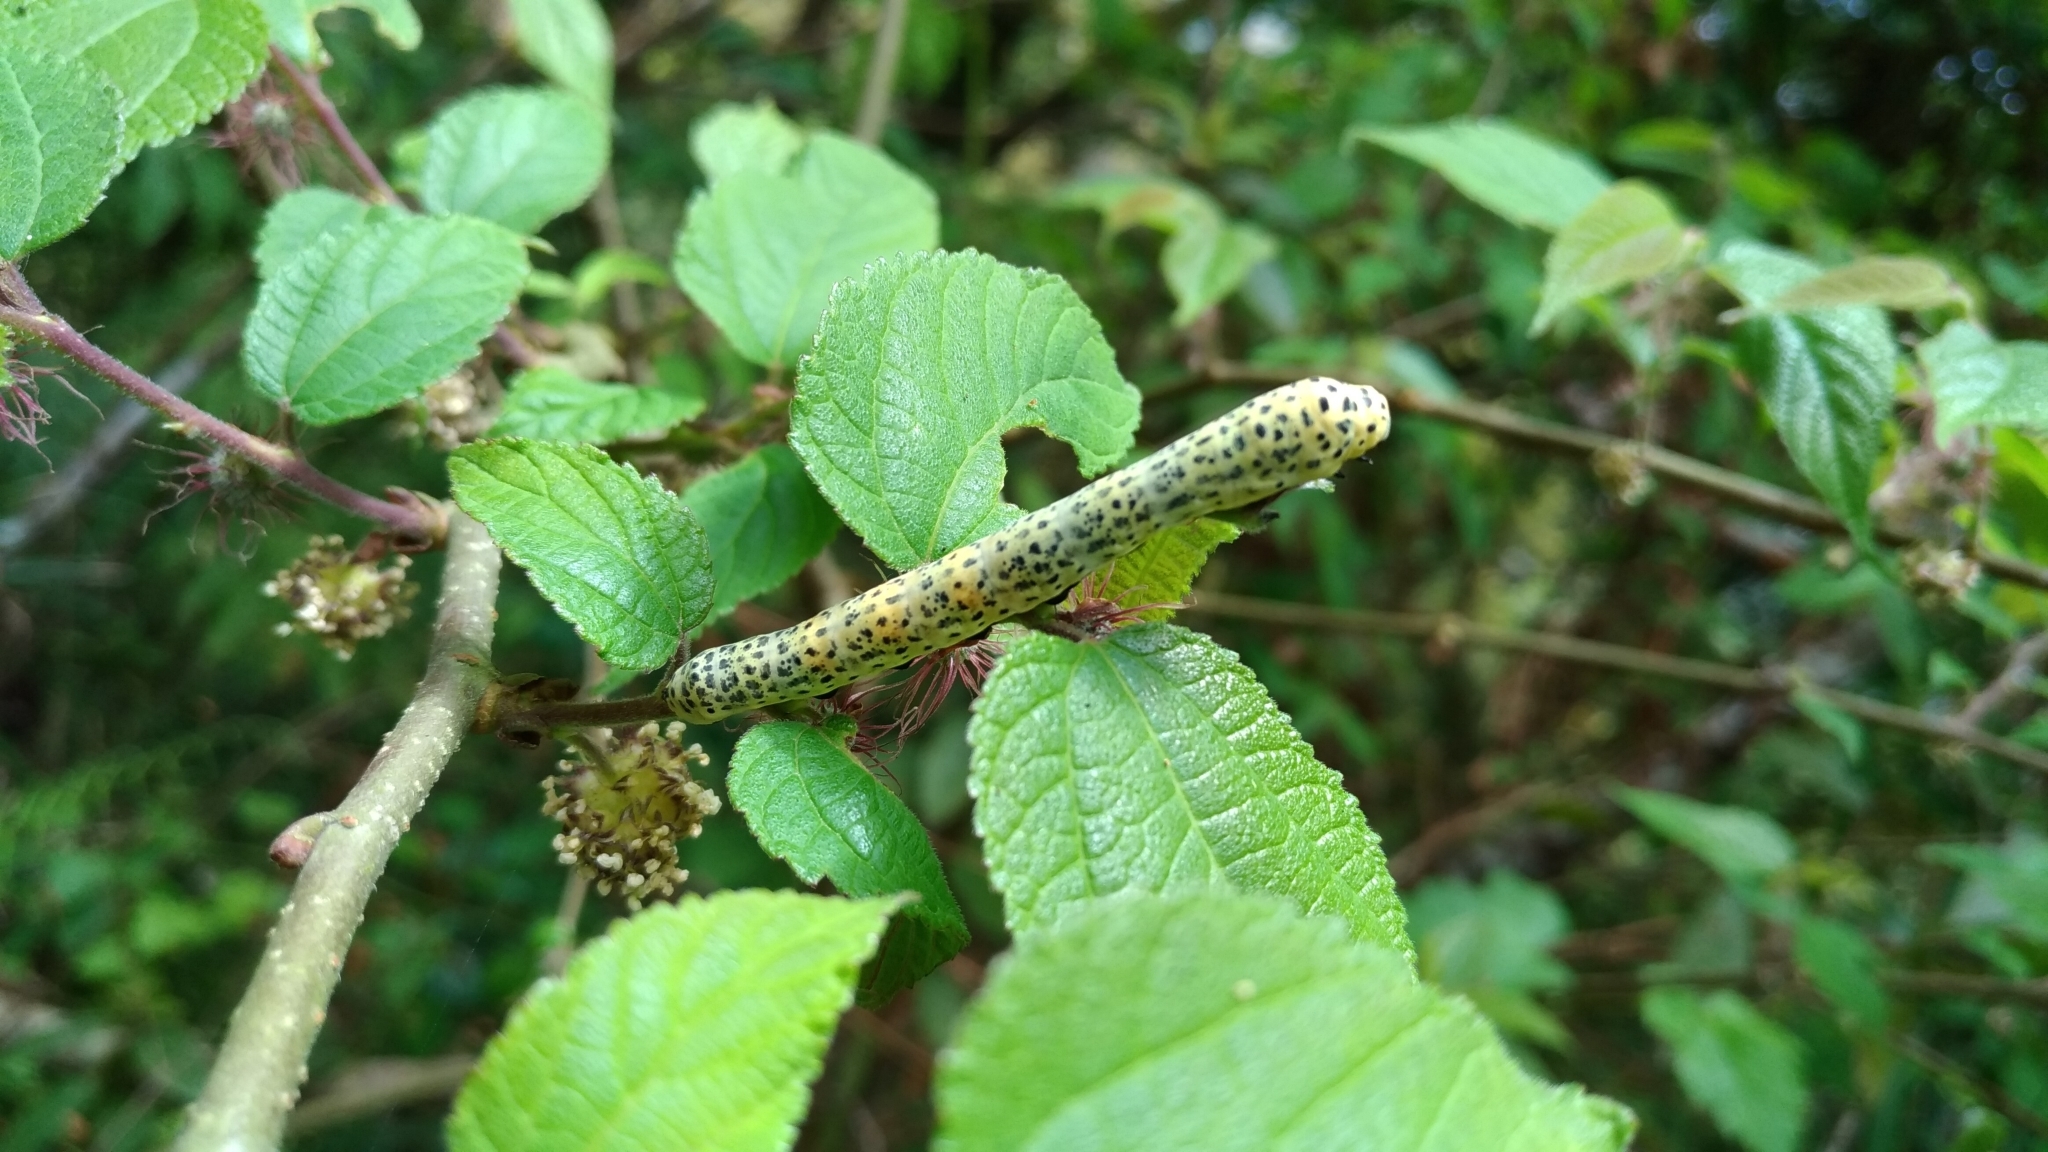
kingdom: Animalia
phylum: Arthropoda
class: Insecta
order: Lepidoptera
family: Bombycidae
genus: Bombyx
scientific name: Bombyx rotundapex
